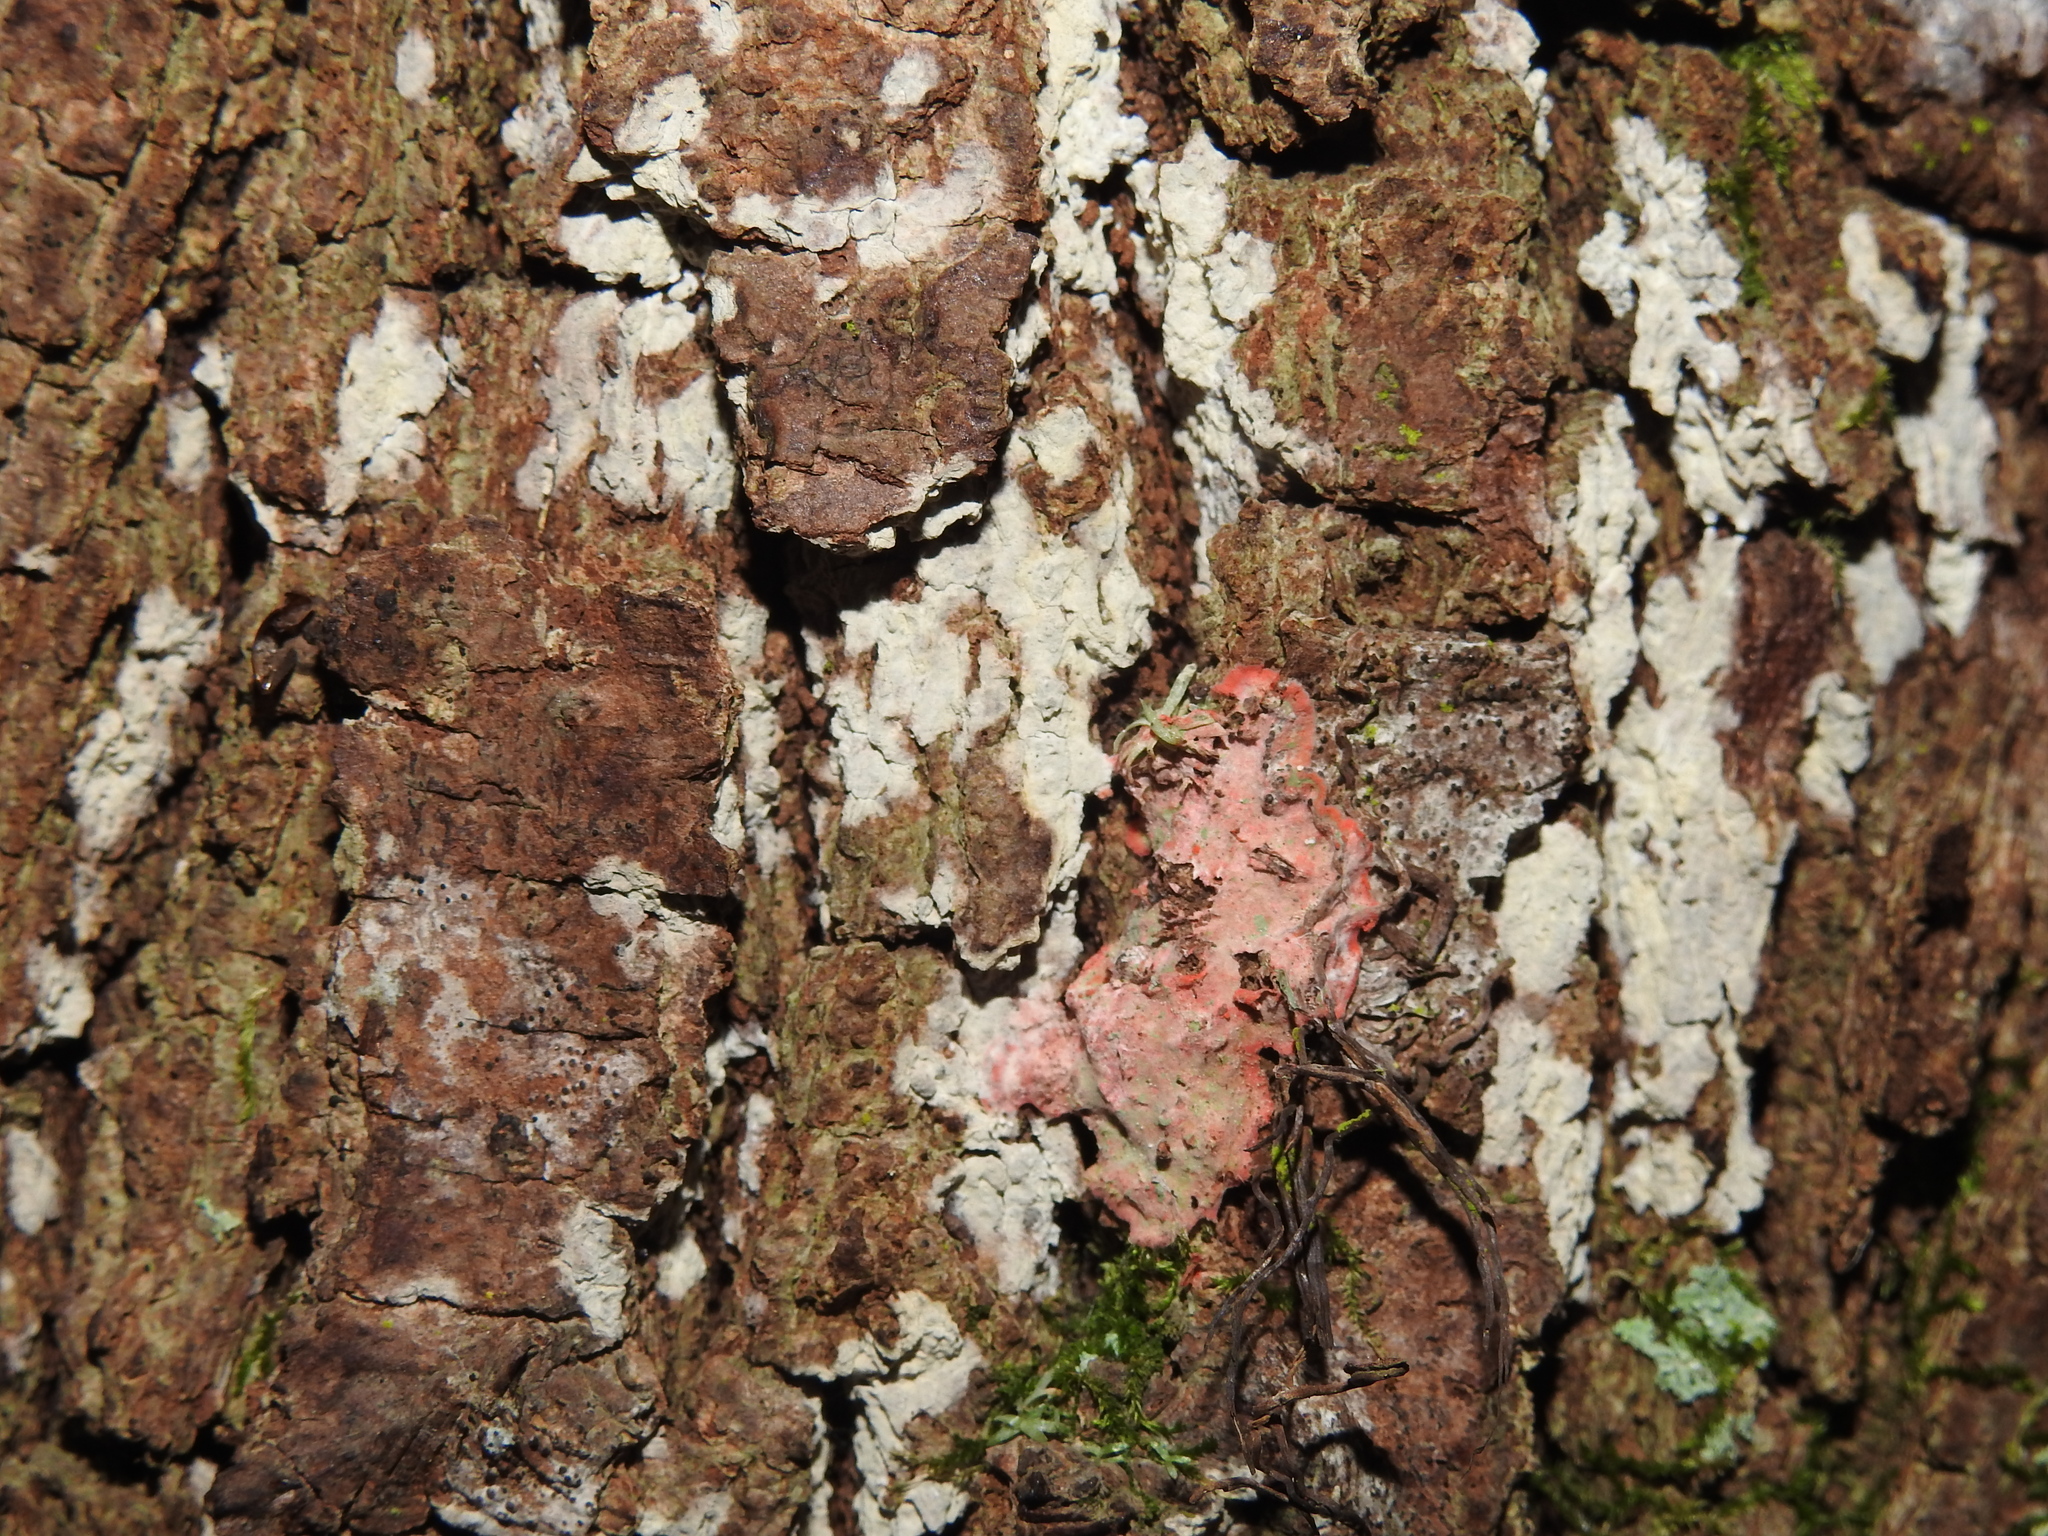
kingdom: Fungi
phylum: Ascomycota
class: Arthoniomycetes
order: Arthoniales
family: Arthoniaceae
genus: Herpothallon
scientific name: Herpothallon rubrocinctum
